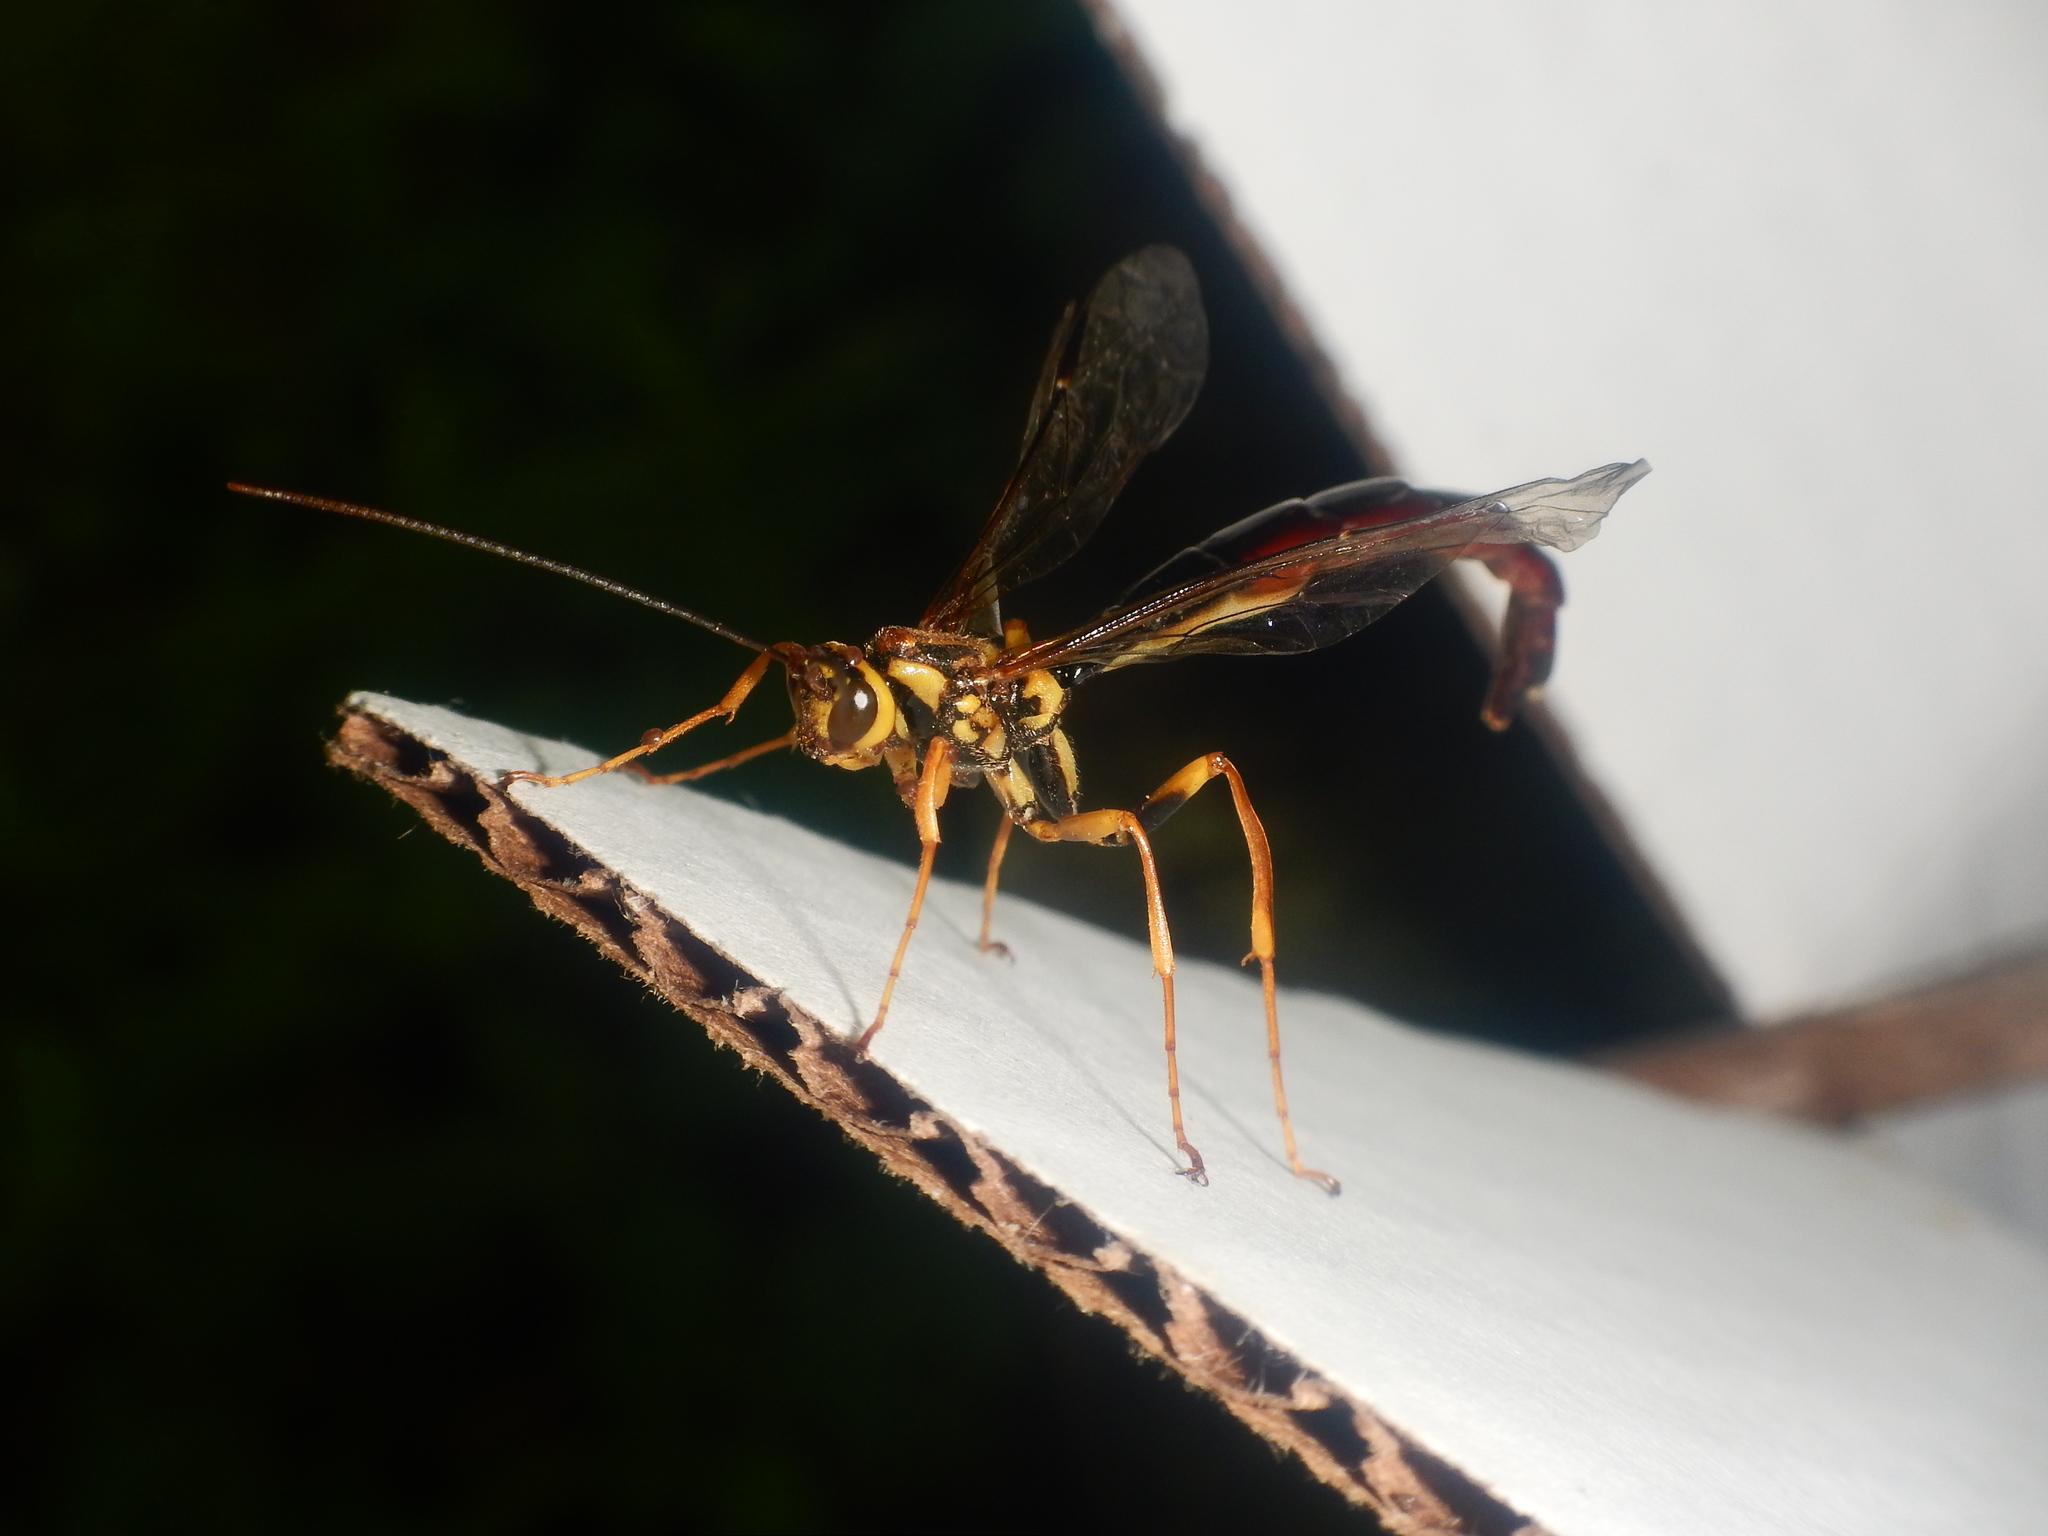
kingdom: Animalia
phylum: Arthropoda
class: Insecta
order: Hymenoptera
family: Ichneumonidae
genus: Megarhyssa
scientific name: Megarhyssa atrata
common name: Black giant ichneumonid wasp
